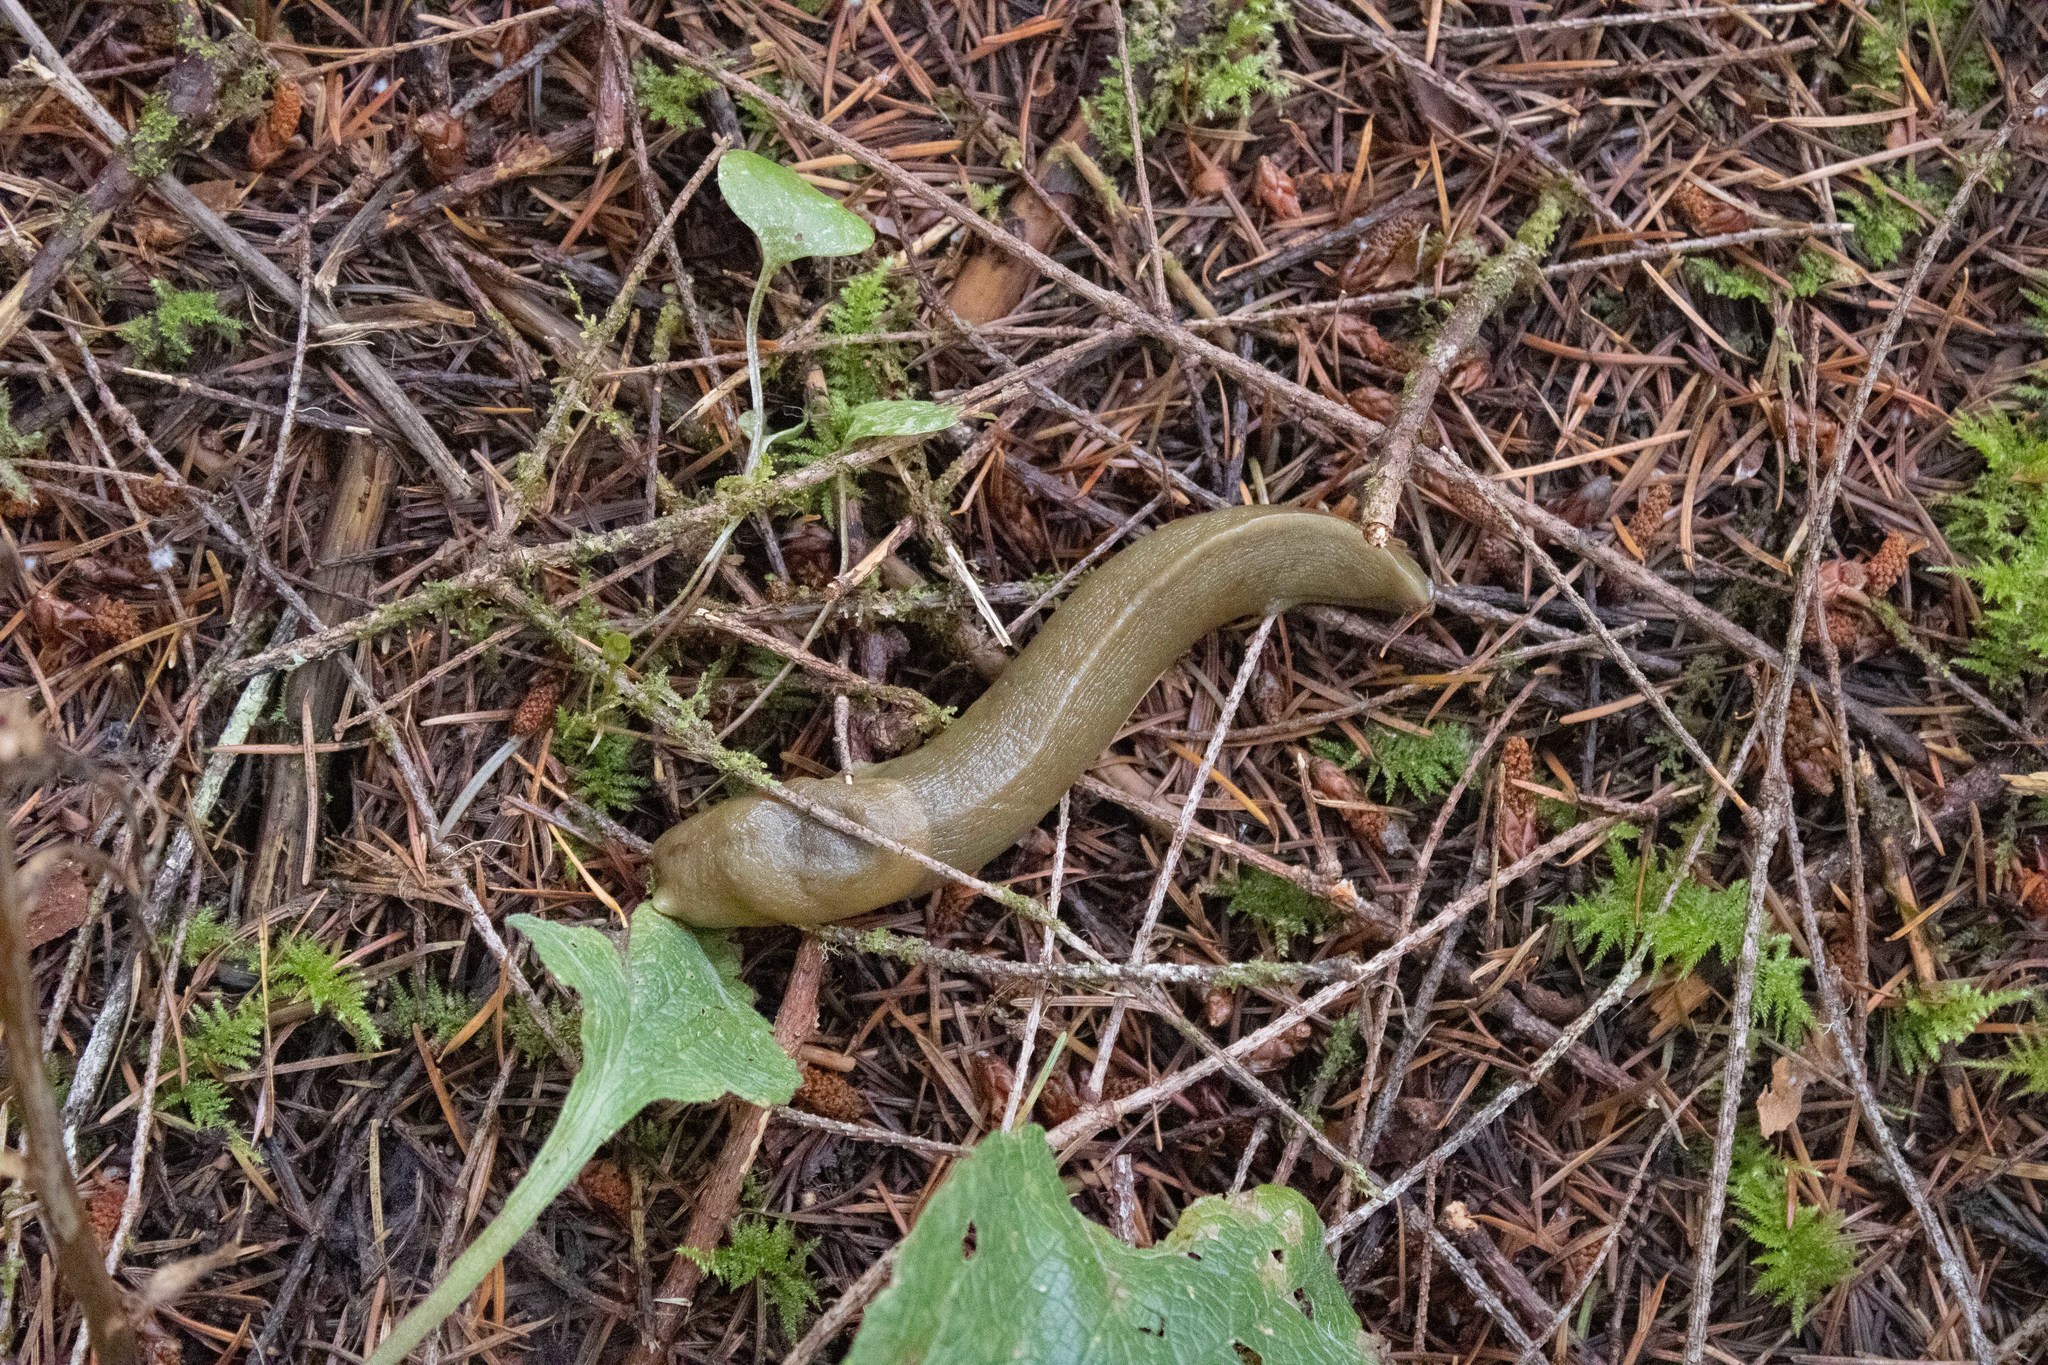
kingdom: Animalia
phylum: Mollusca
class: Gastropoda
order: Stylommatophora
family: Ariolimacidae
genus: Ariolimax
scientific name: Ariolimax columbianus
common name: Pacific banana slug
